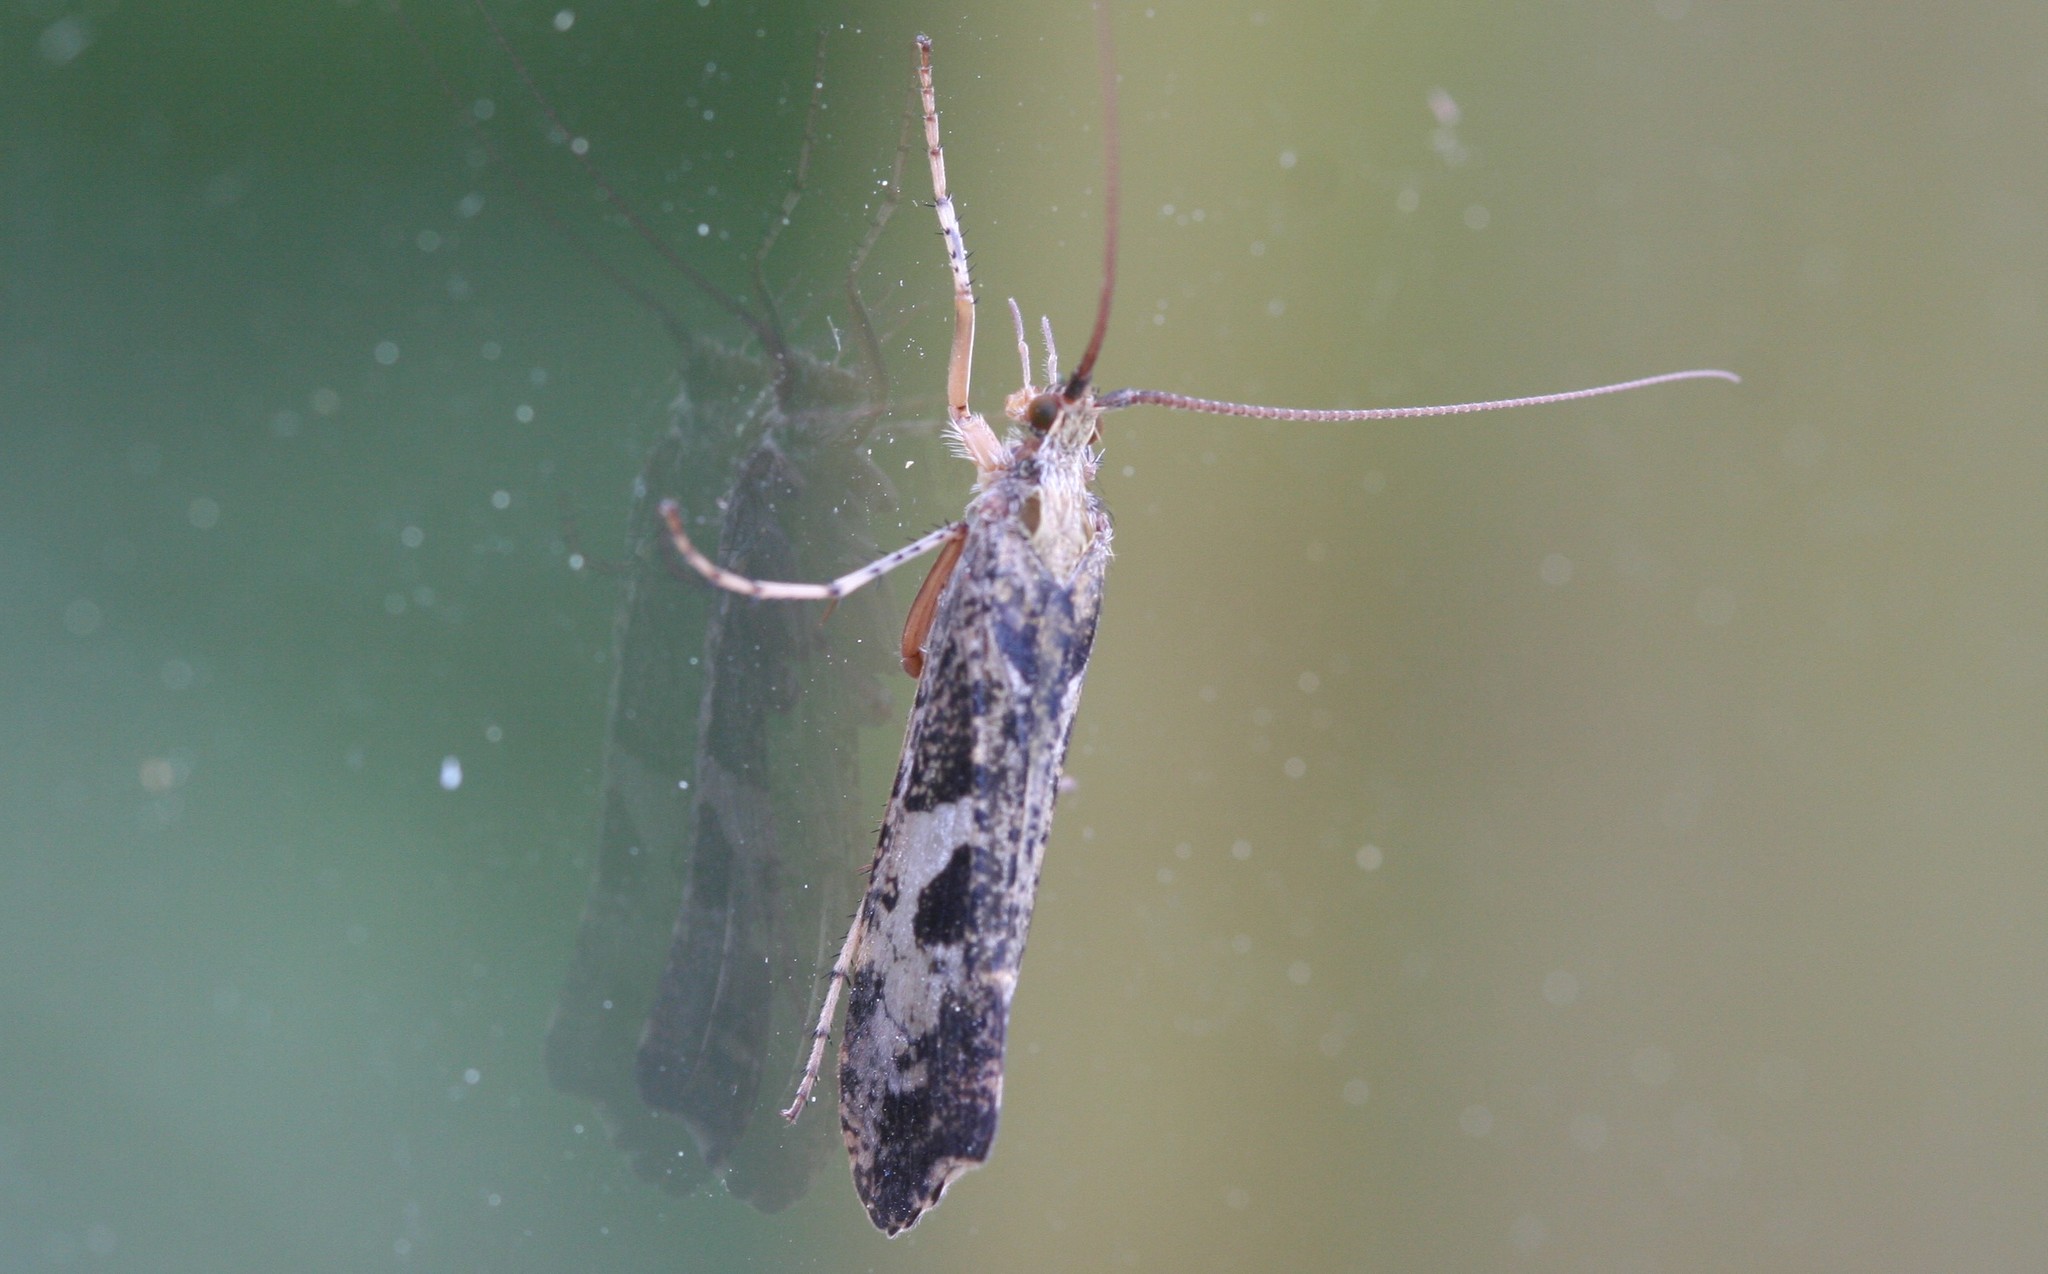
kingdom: Animalia
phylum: Arthropoda
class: Insecta
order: Trichoptera
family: Limnephilidae
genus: Glyphotaelius
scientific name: Glyphotaelius pellucidus
